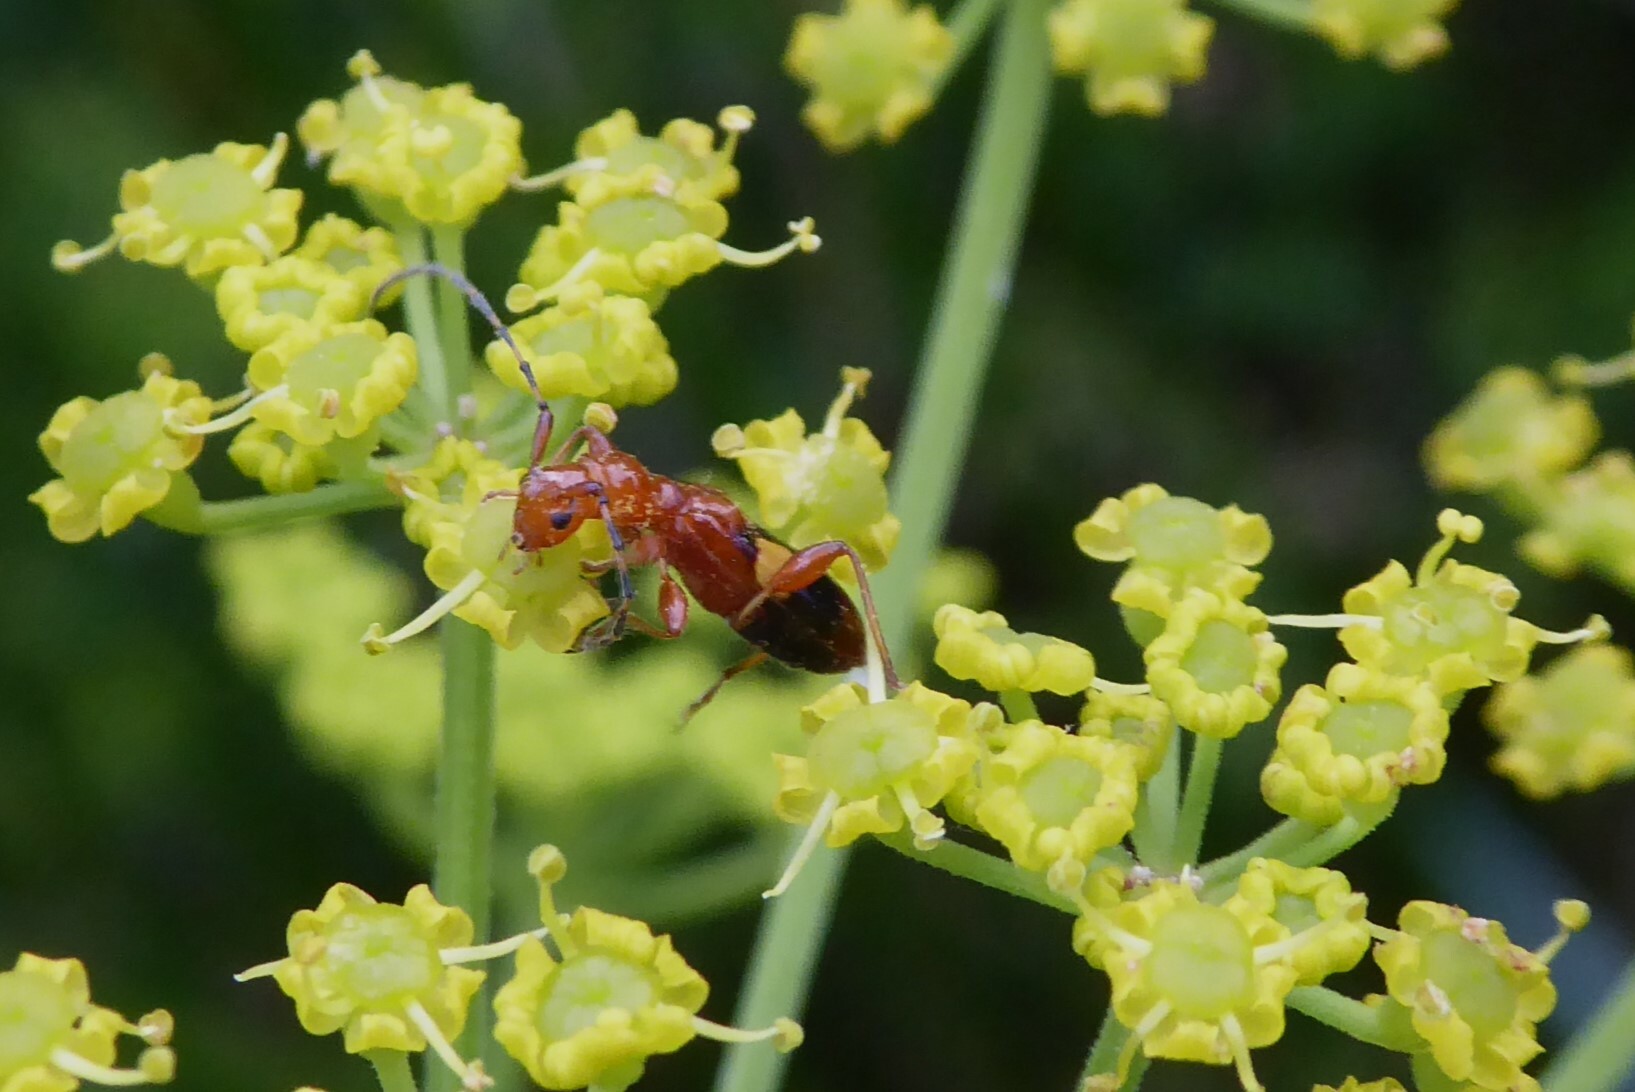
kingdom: Animalia
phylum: Arthropoda
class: Insecta
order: Coleoptera
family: Cerambycidae
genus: Zorion
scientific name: Zorion australe
